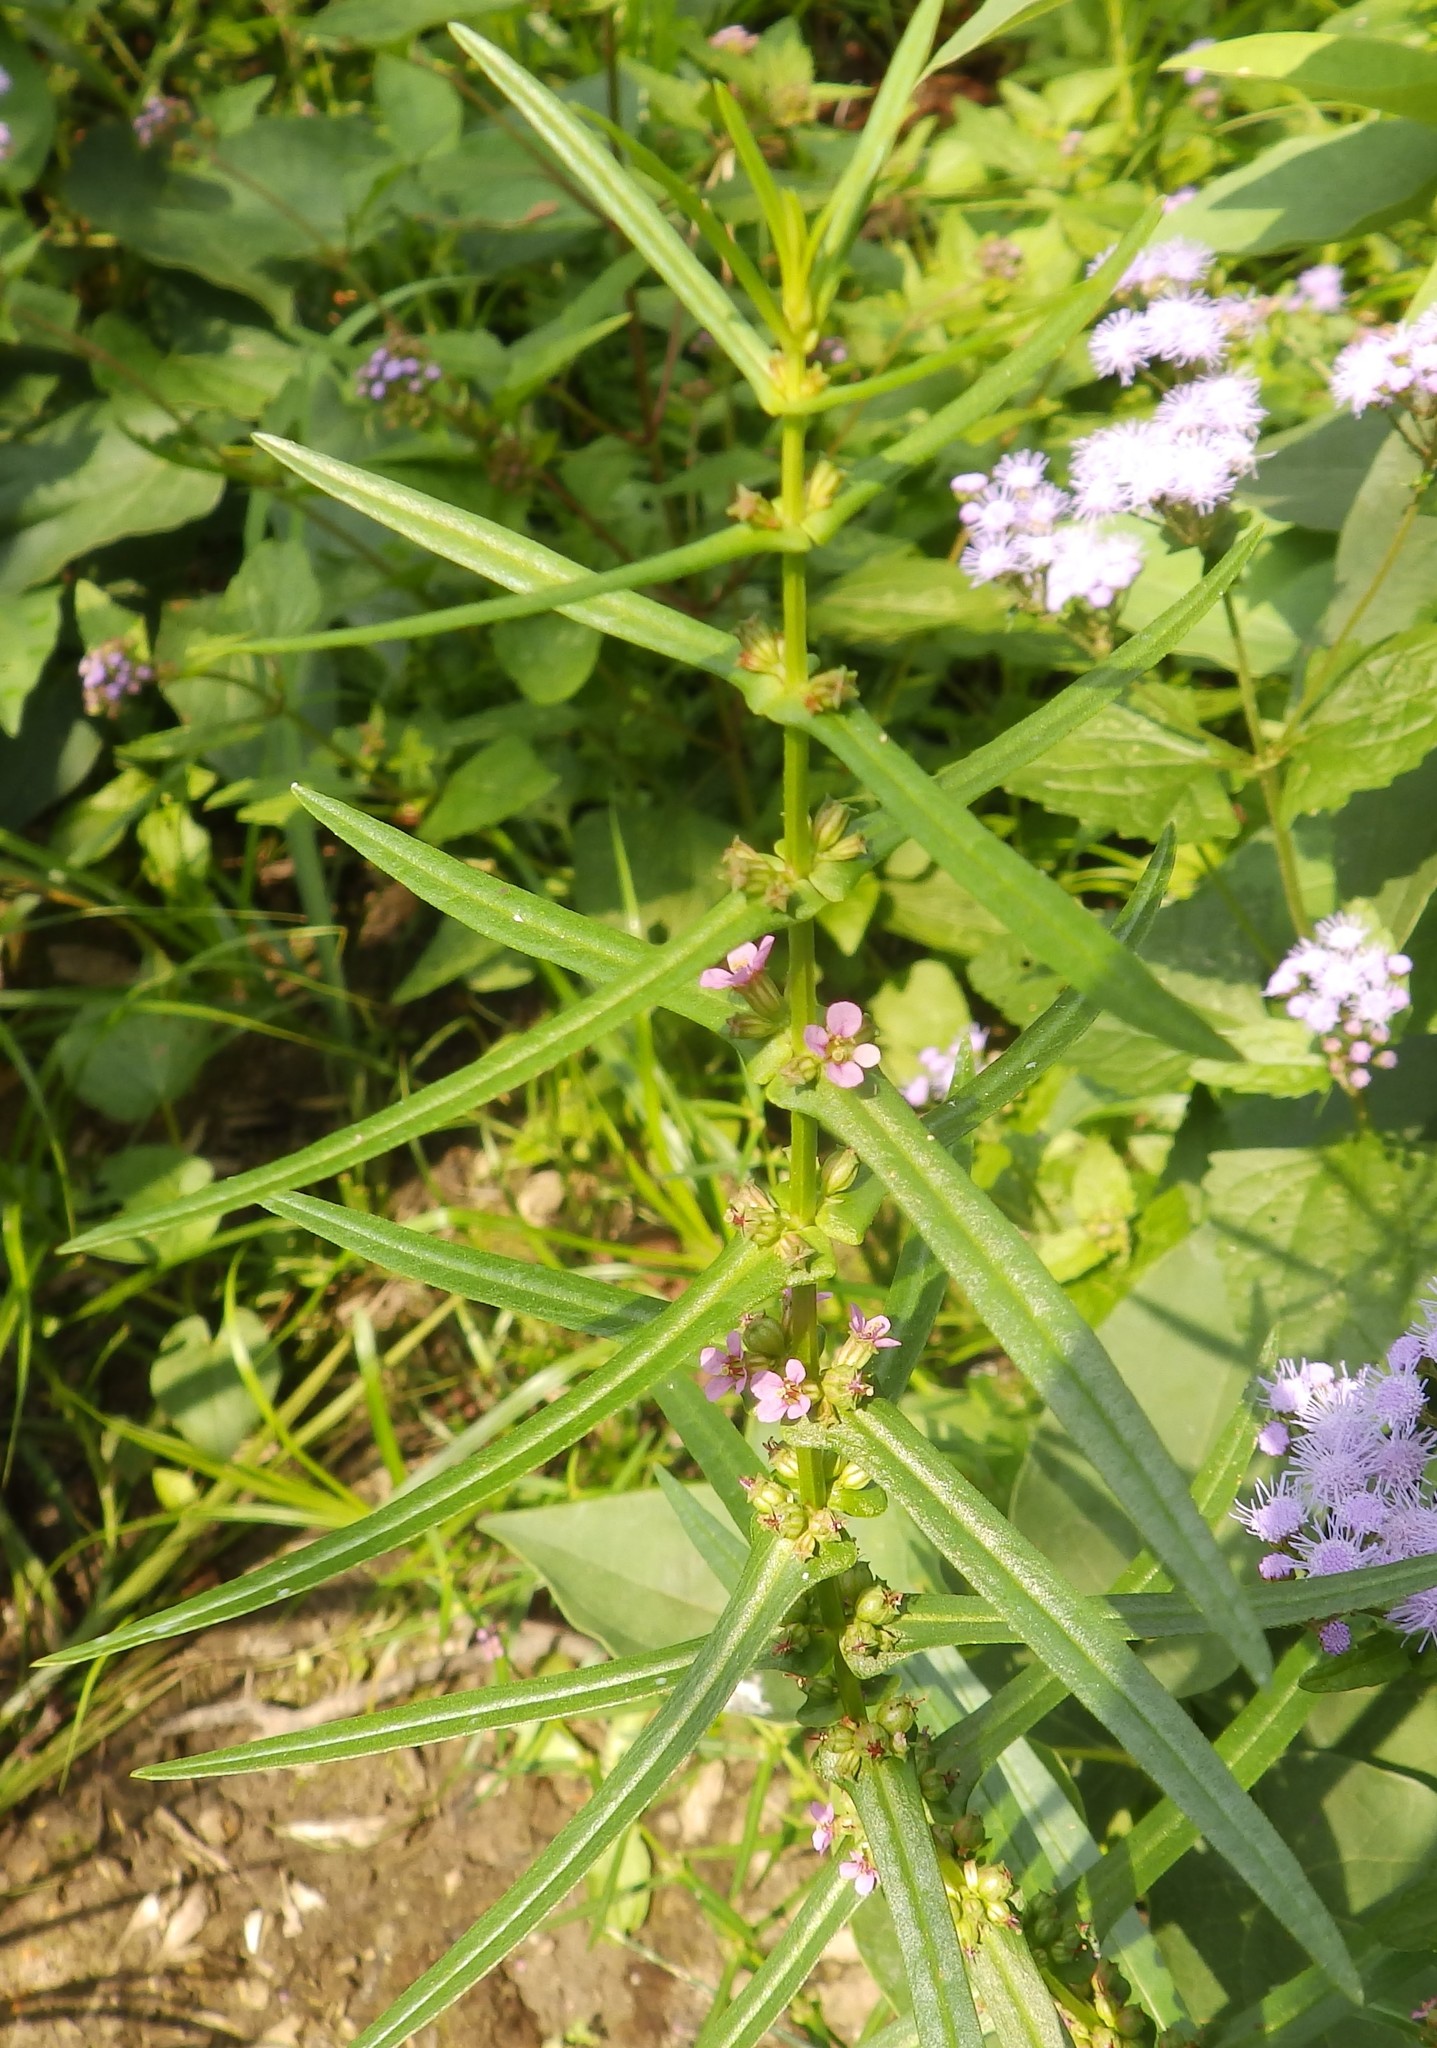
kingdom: Plantae
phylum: Tracheophyta
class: Magnoliopsida
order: Myrtales
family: Lythraceae
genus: Ammannia
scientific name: Ammannia coccinea
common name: Valley redstem
